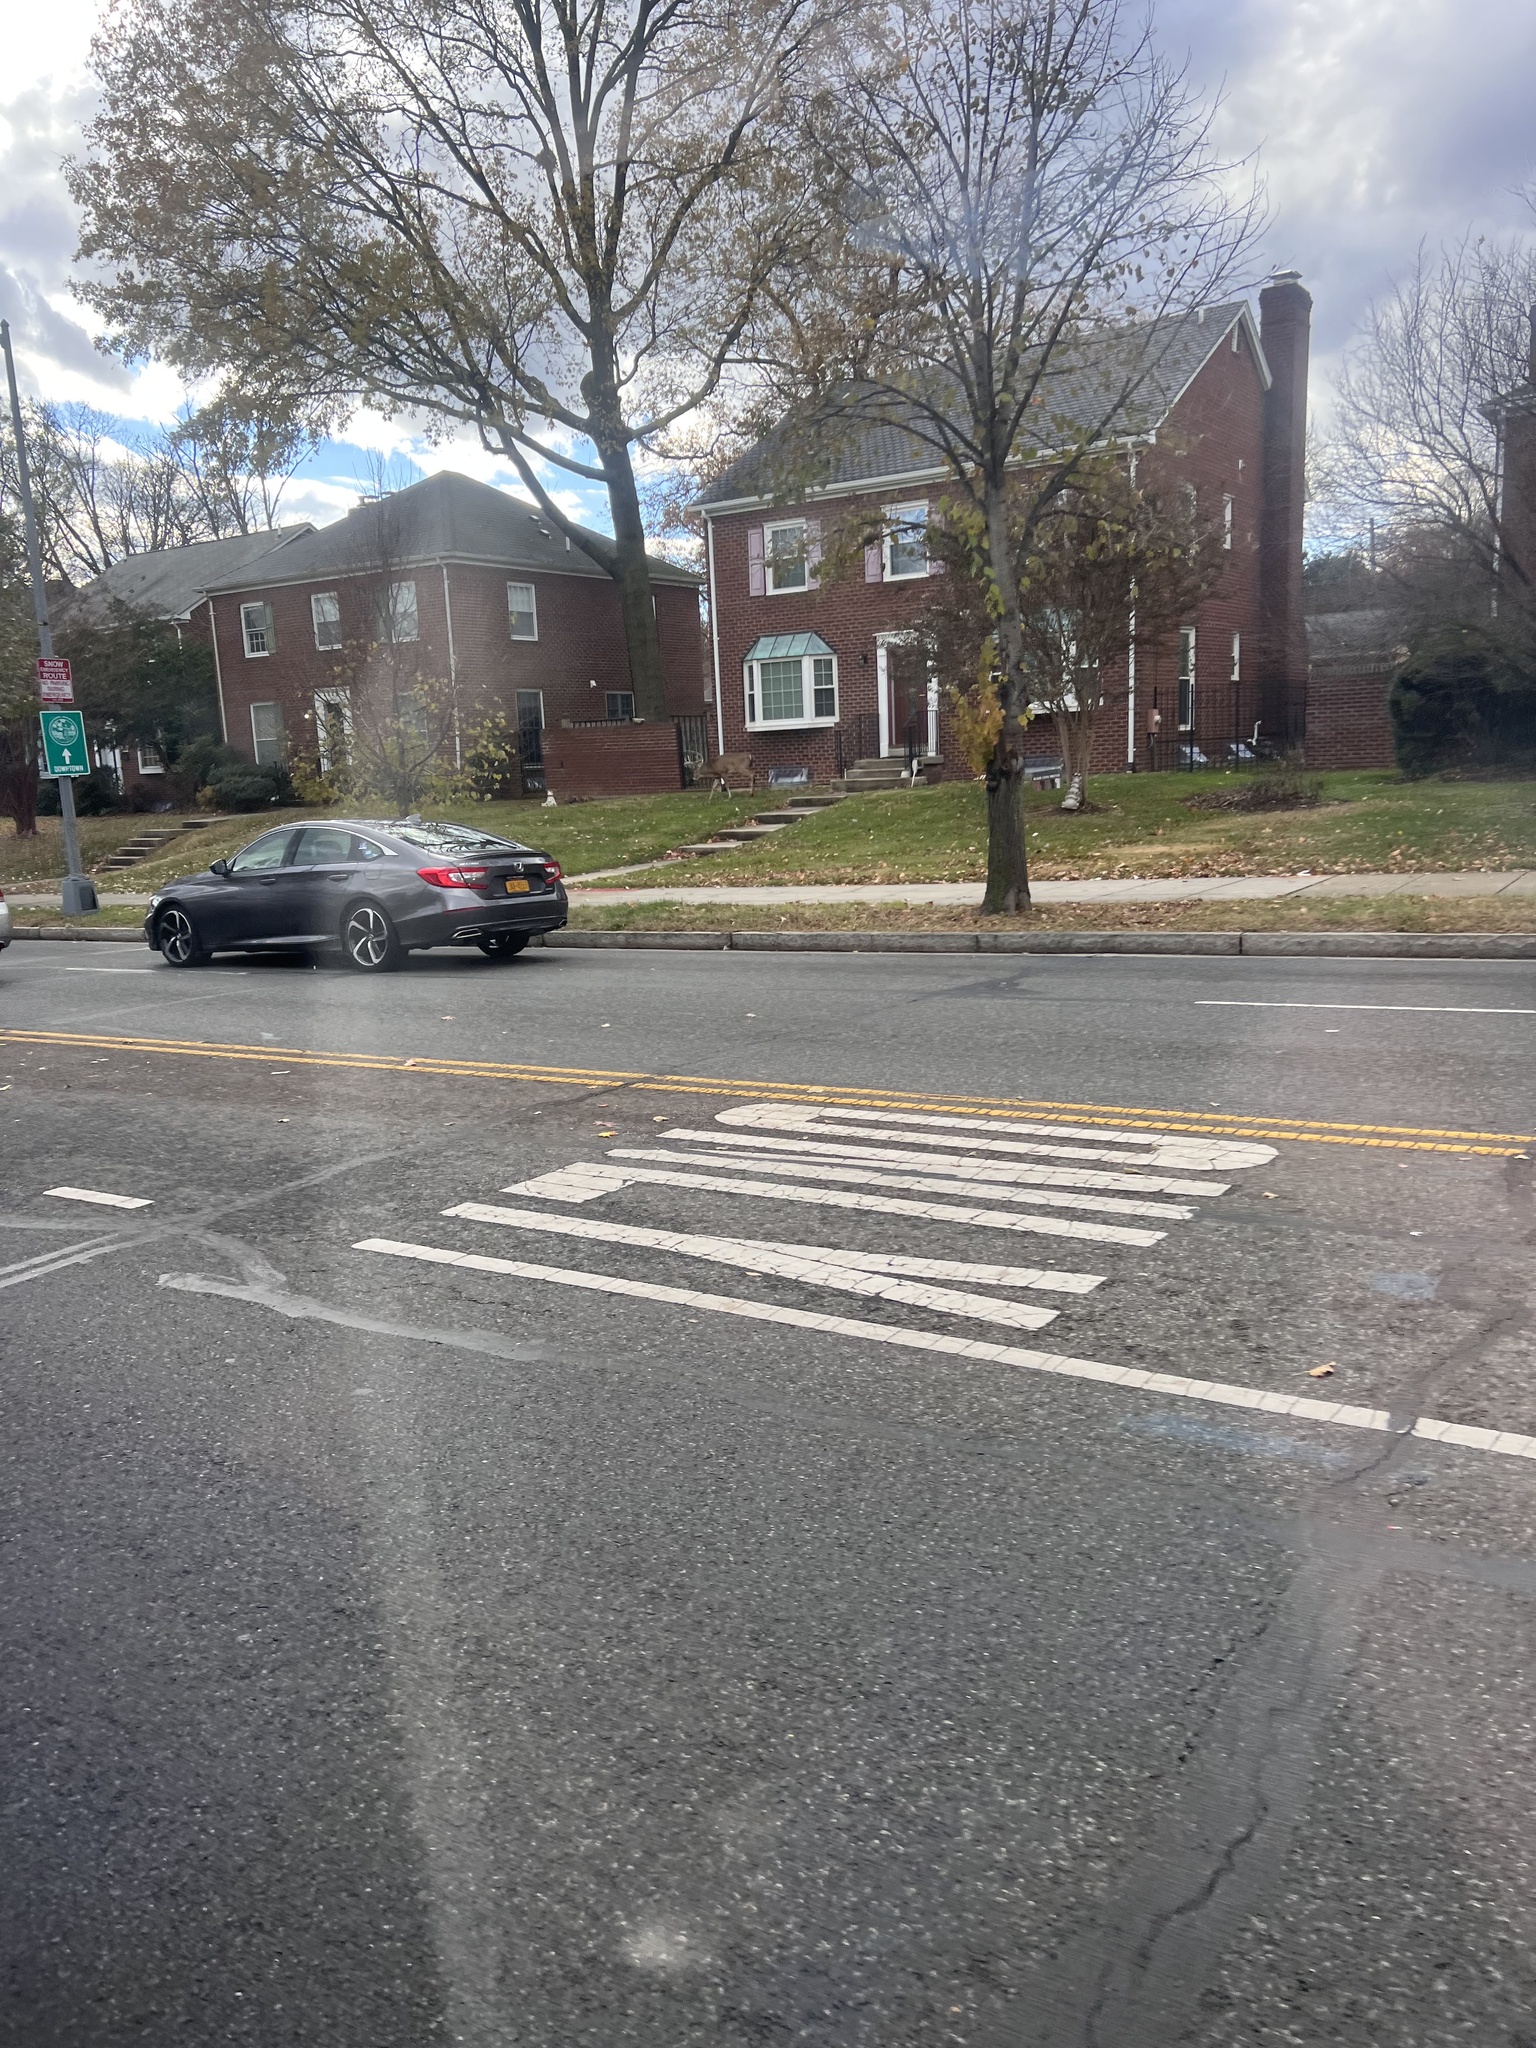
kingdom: Animalia
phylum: Chordata
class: Mammalia
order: Artiodactyla
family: Cervidae
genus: Odocoileus
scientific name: Odocoileus virginianus
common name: White-tailed deer
